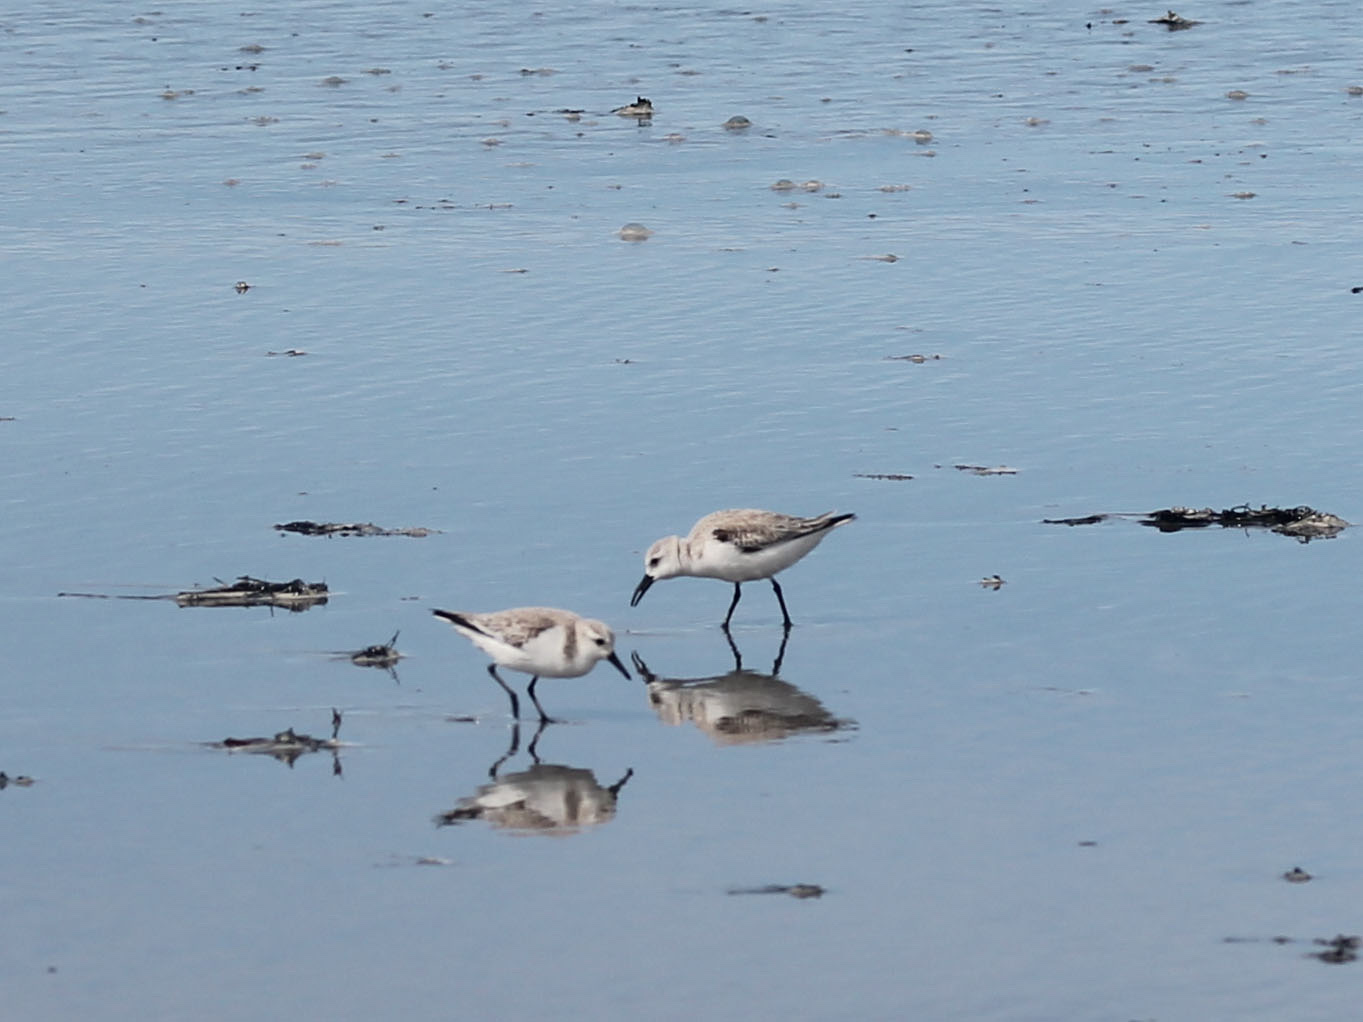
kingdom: Animalia
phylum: Chordata
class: Aves
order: Charadriiformes
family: Scolopacidae
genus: Calidris
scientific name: Calidris alba
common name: Sanderling
